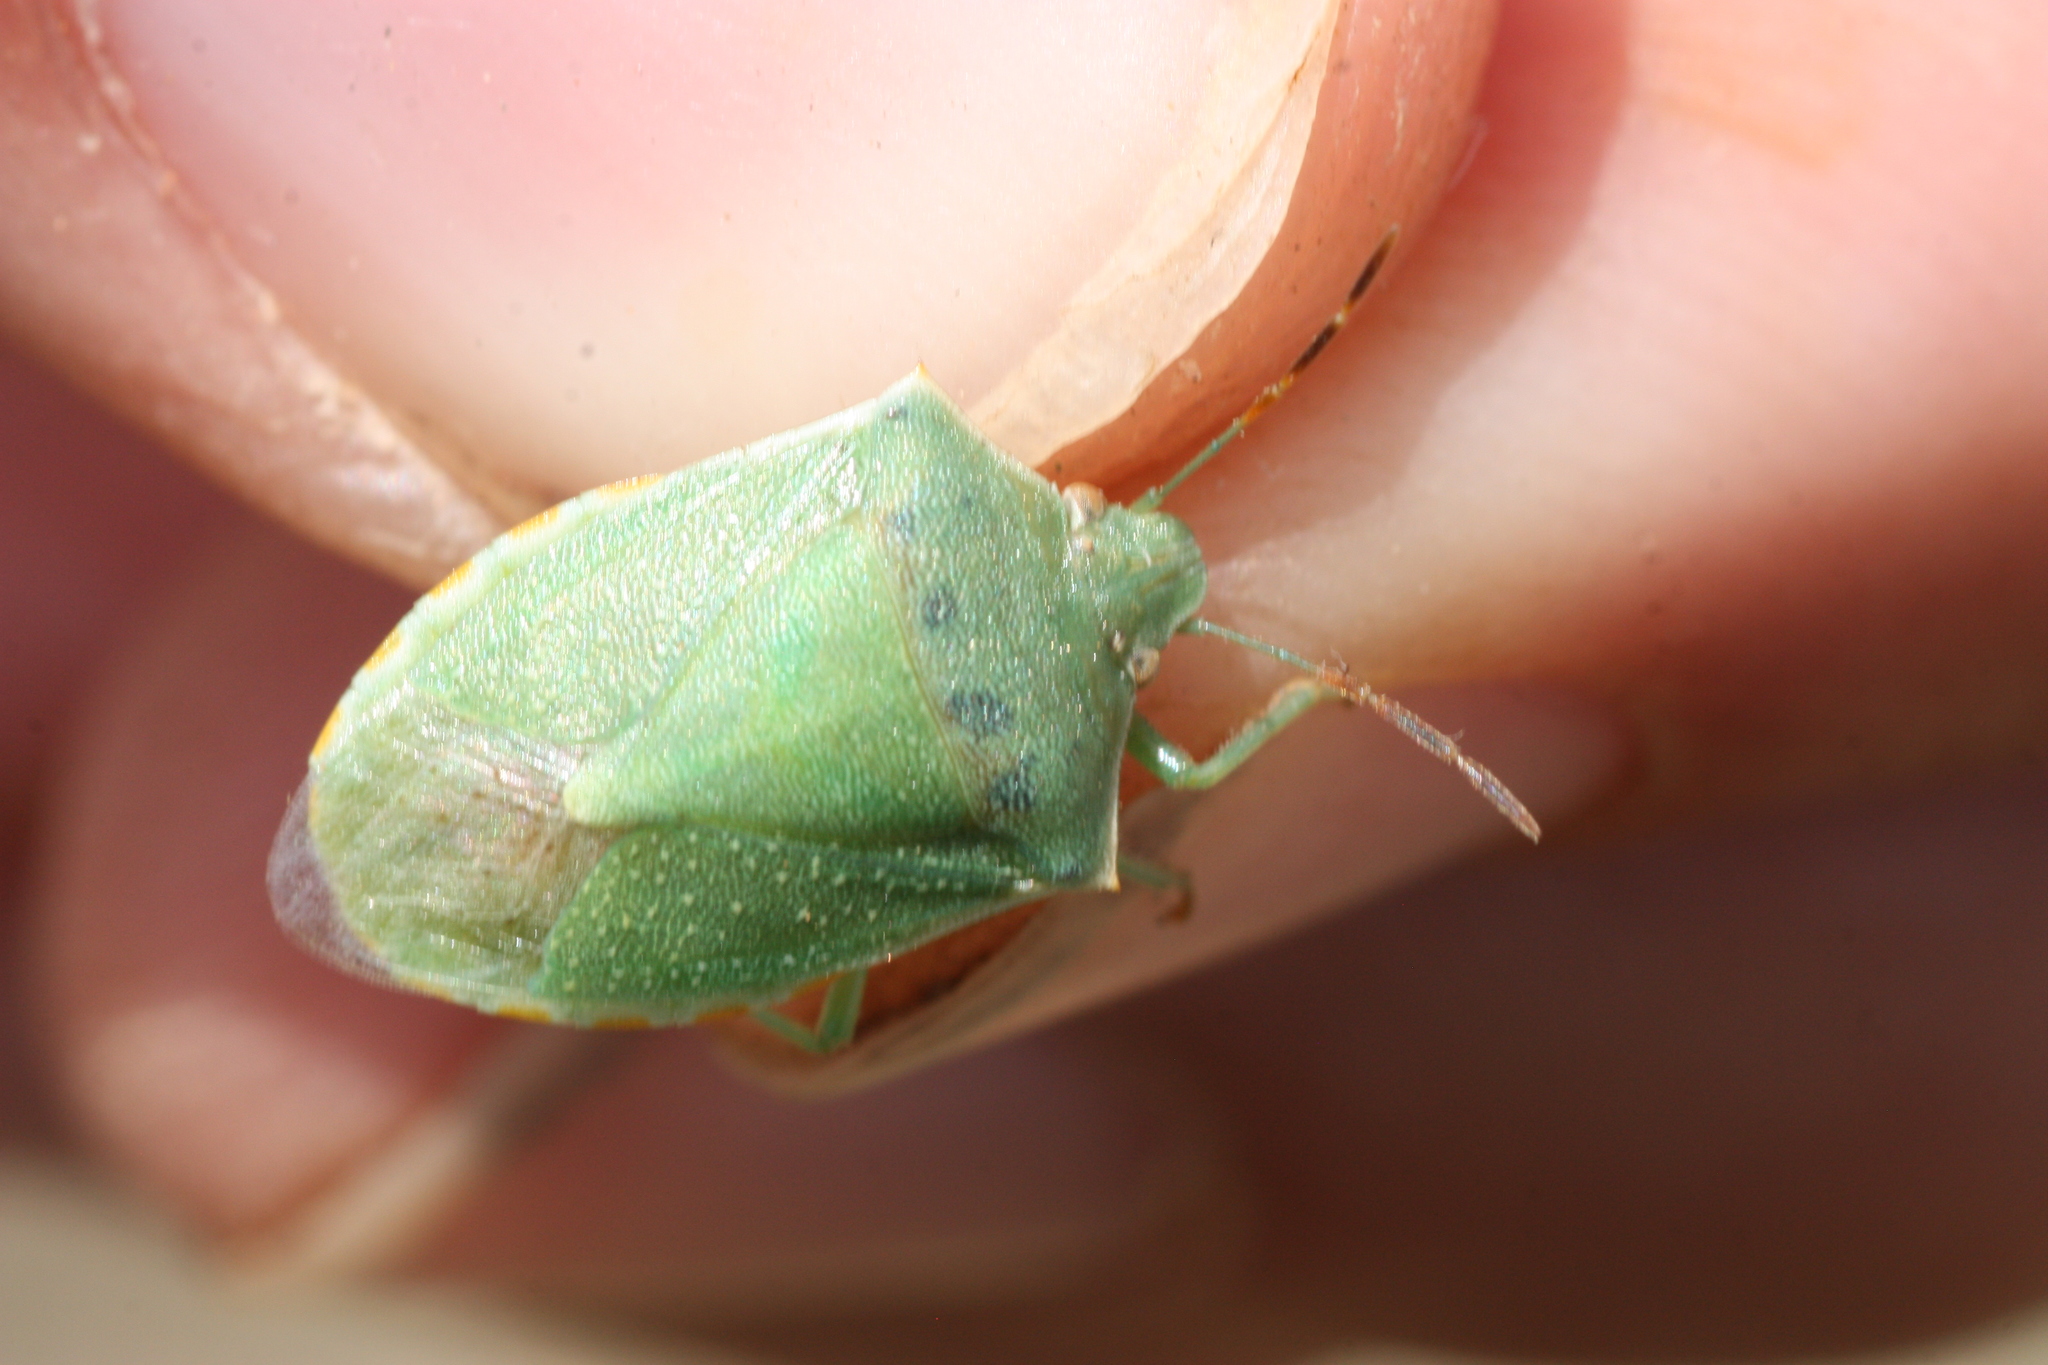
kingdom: Animalia
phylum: Arthropoda
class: Insecta
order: Hemiptera
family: Pentatomidae
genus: Thyanta
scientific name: Thyanta custator
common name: Stink bug
